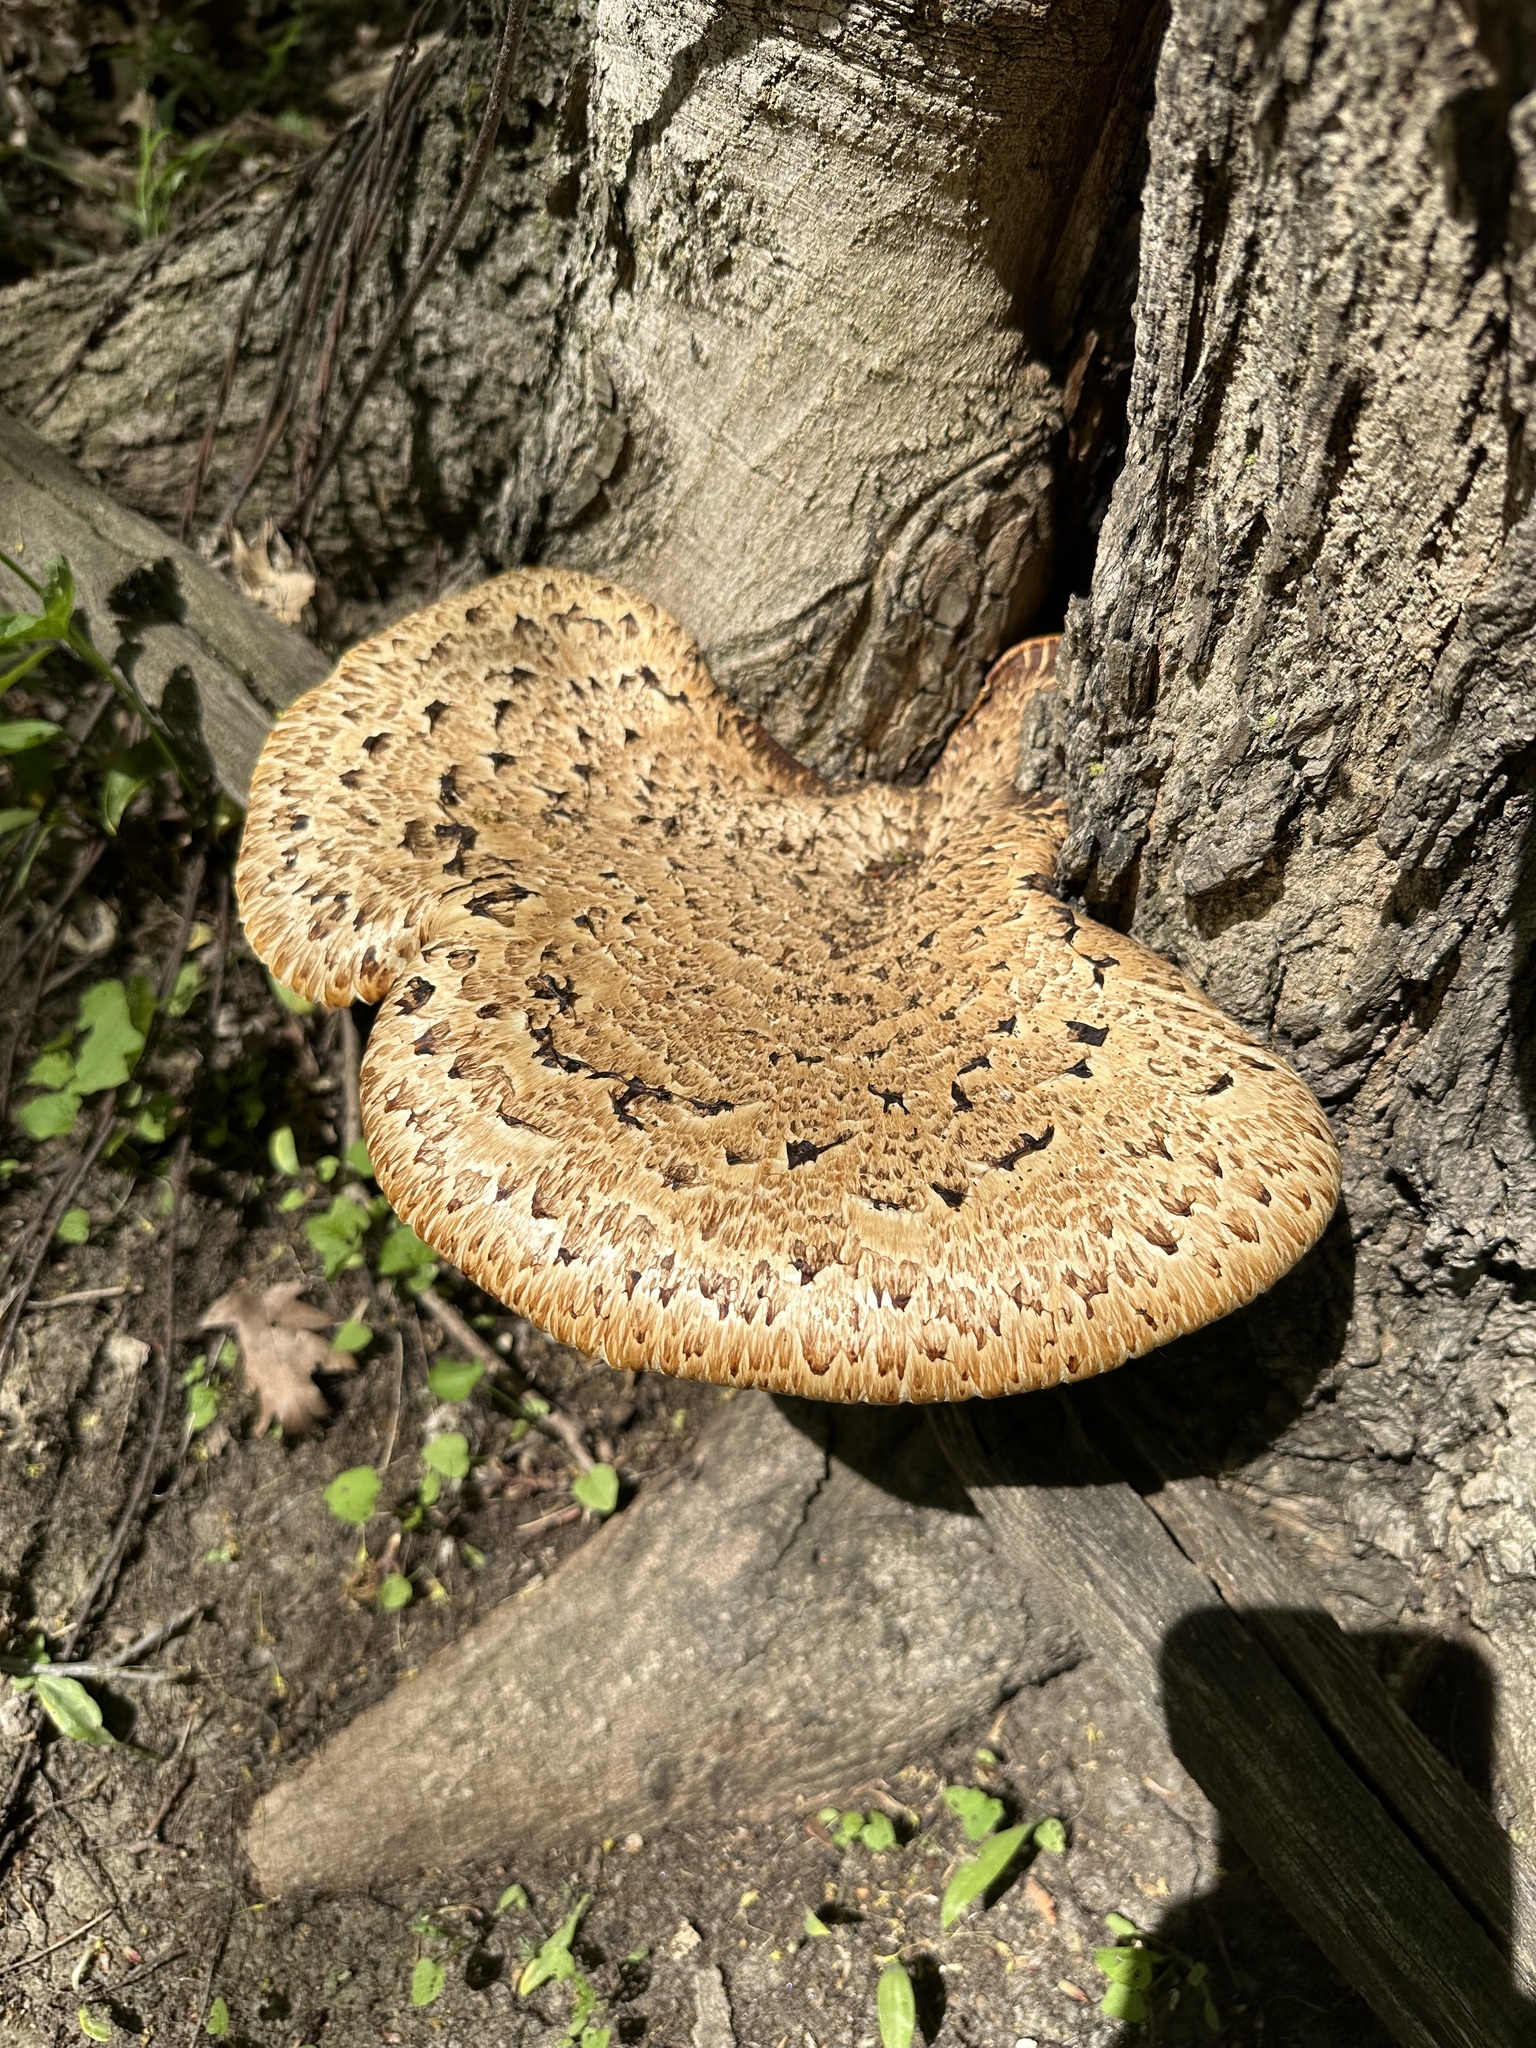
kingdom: Fungi
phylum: Basidiomycota
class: Agaricomycetes
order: Polyporales
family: Polyporaceae
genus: Cerioporus
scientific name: Cerioporus squamosus
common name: Dryad's saddle
